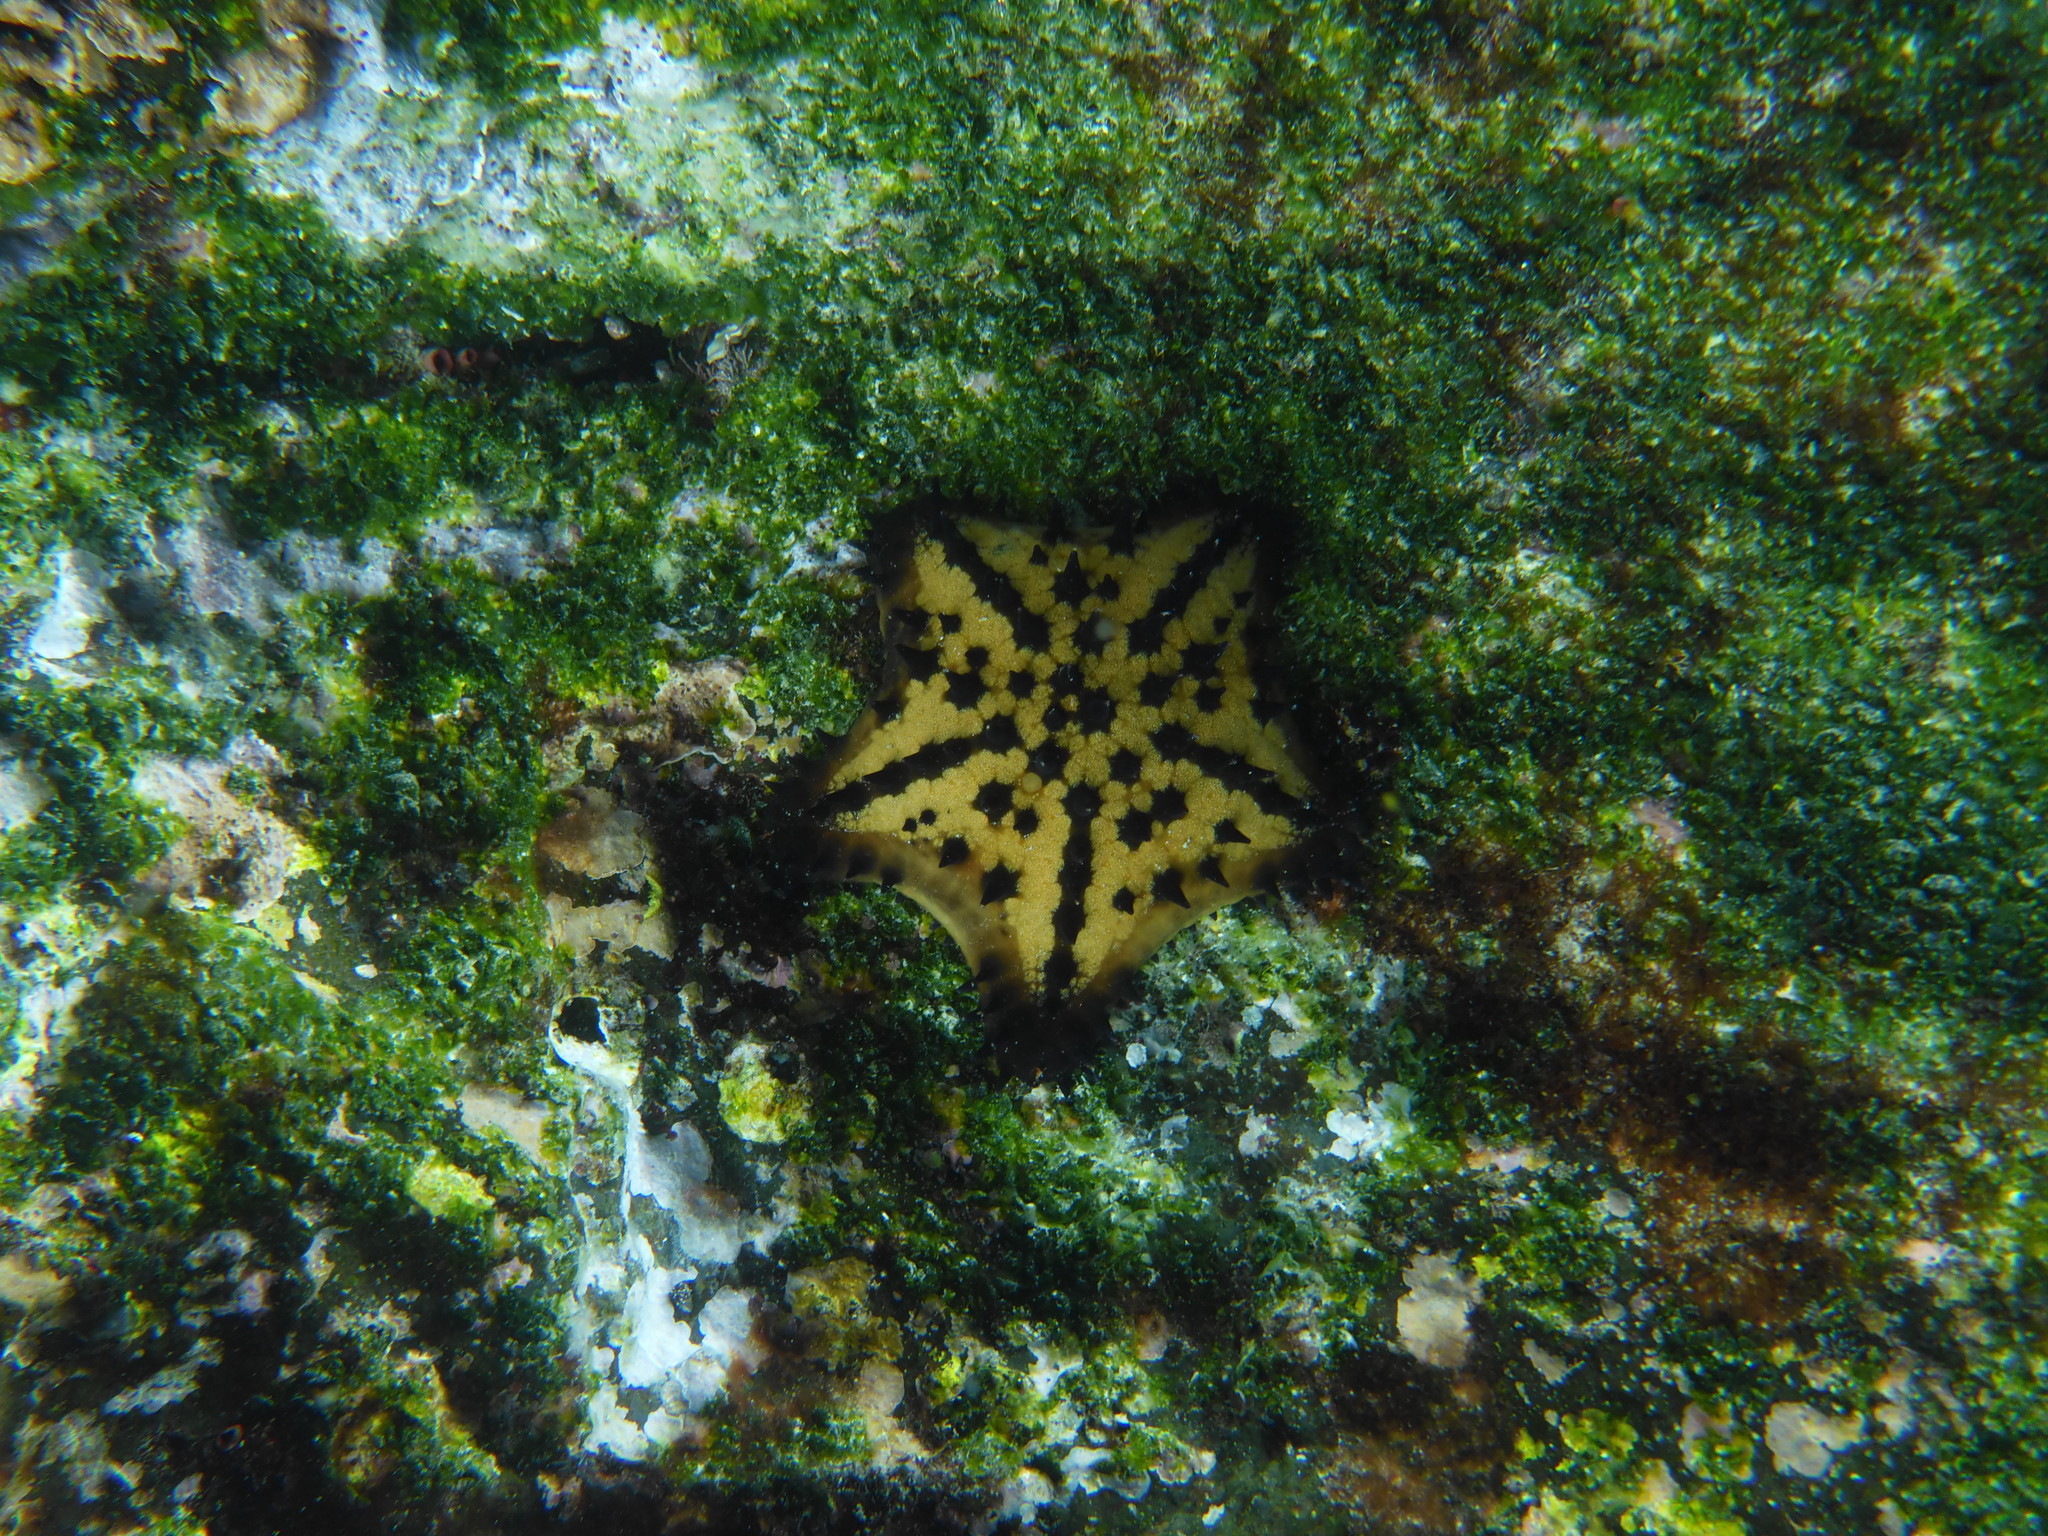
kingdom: Animalia
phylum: Echinodermata
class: Asteroidea
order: Valvatida
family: Oreasteridae
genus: Nidorellia
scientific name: Nidorellia armata
